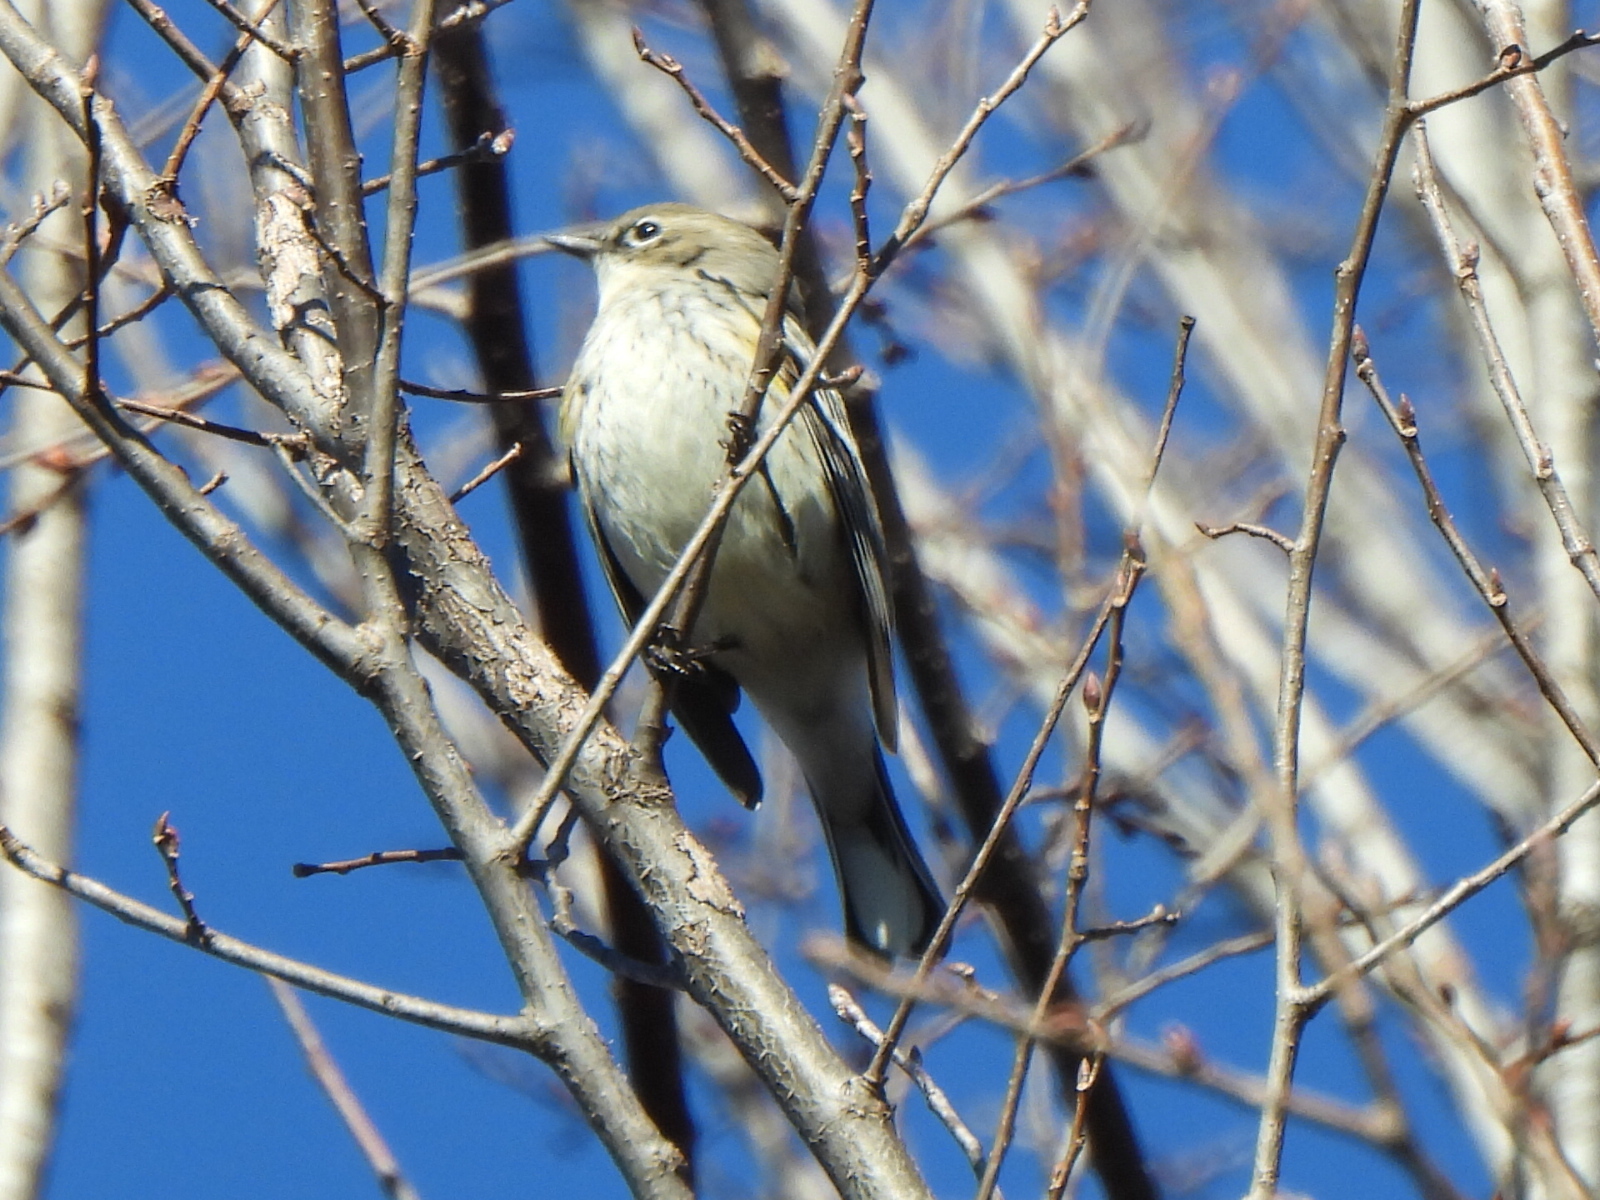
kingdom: Animalia
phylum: Chordata
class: Aves
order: Passeriformes
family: Parulidae
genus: Setophaga
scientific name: Setophaga coronata
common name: Myrtle warbler
